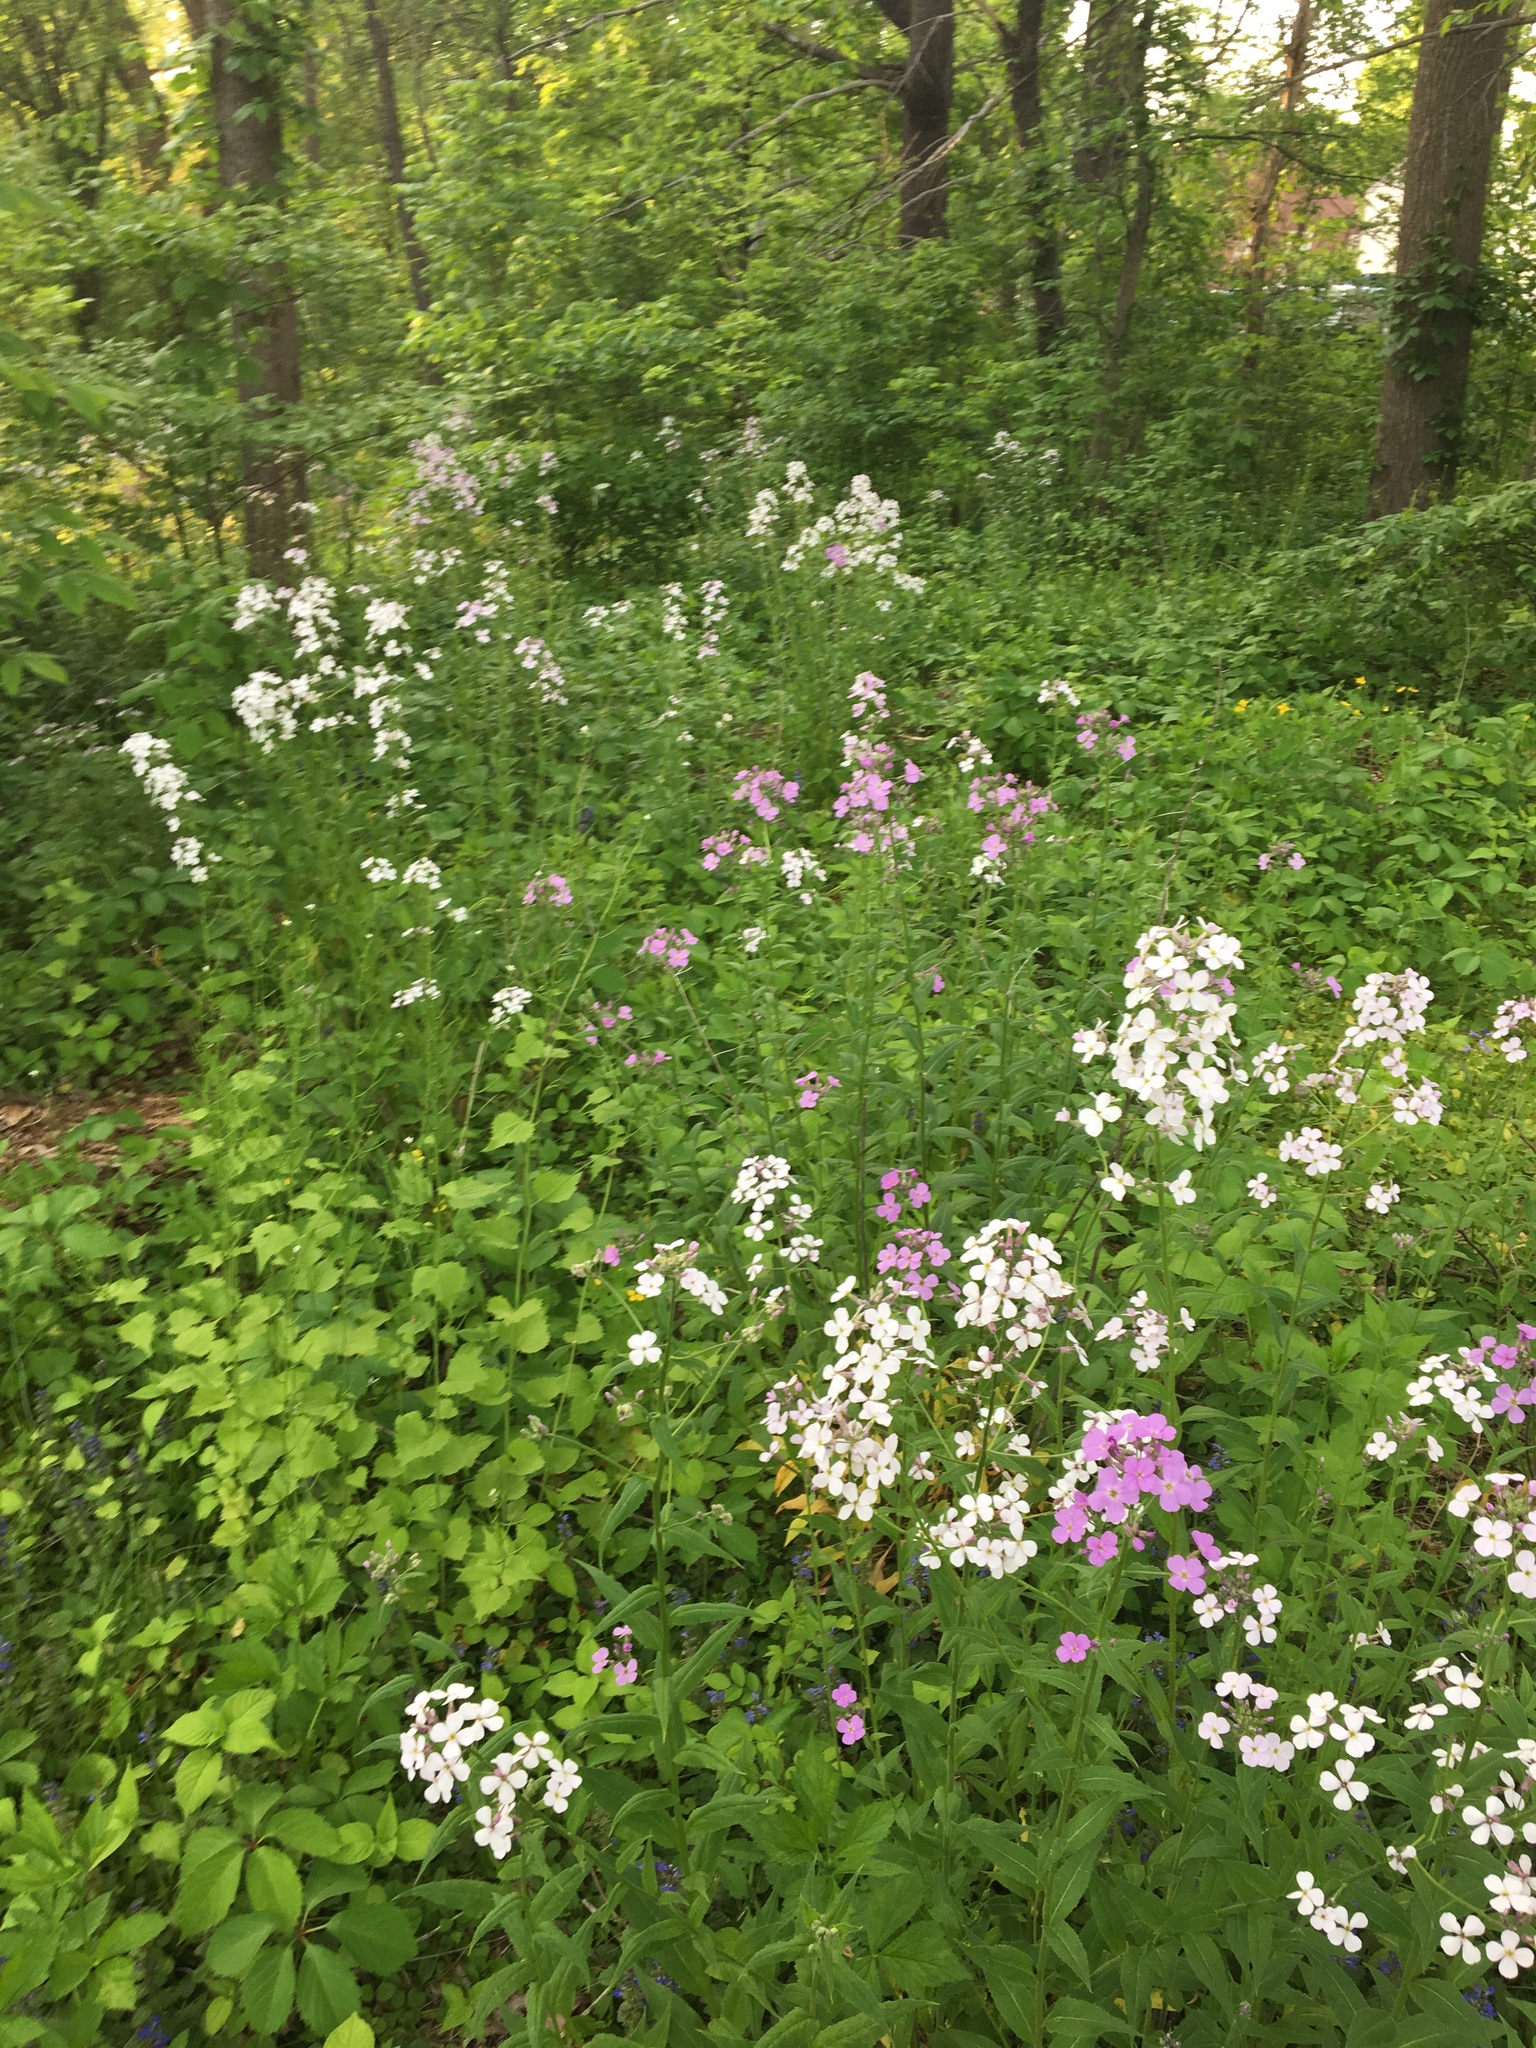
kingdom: Plantae
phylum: Tracheophyta
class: Magnoliopsida
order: Brassicales
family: Brassicaceae
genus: Hesperis
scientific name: Hesperis matronalis
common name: Dame's-violet
